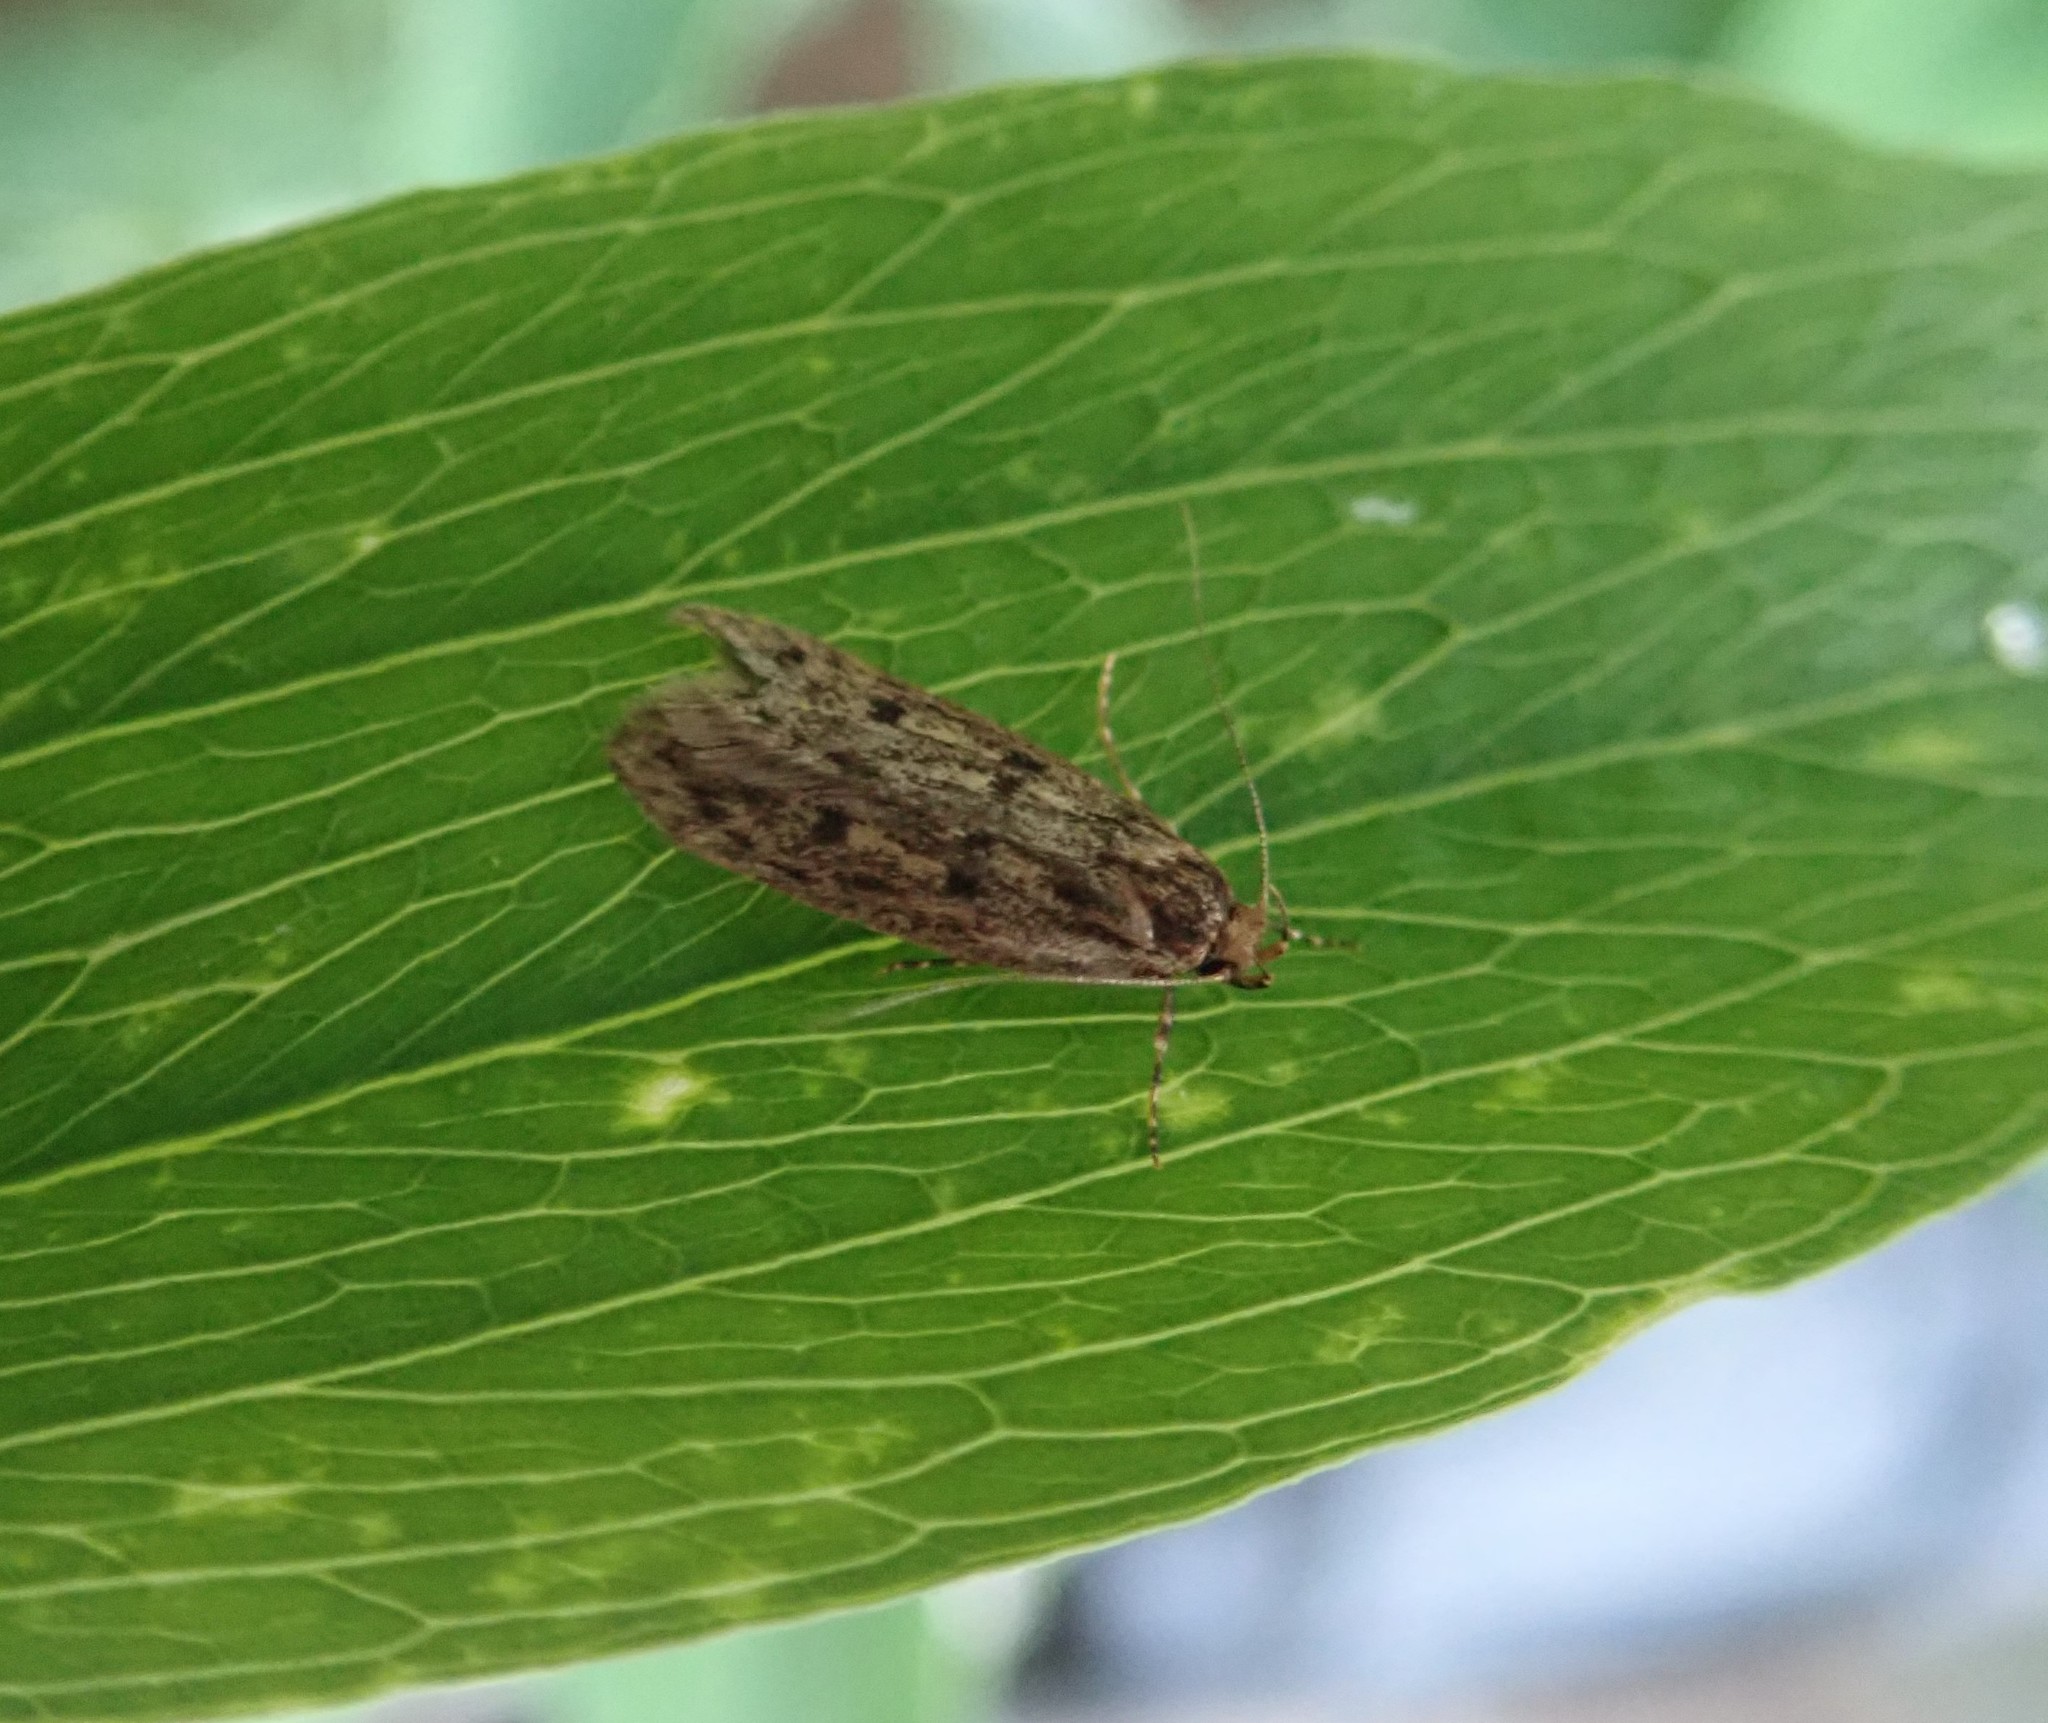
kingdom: Animalia
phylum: Arthropoda
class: Insecta
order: Lepidoptera
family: Oecophoridae
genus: Hofmannophila
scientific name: Hofmannophila pseudospretella
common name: Brown house moth
